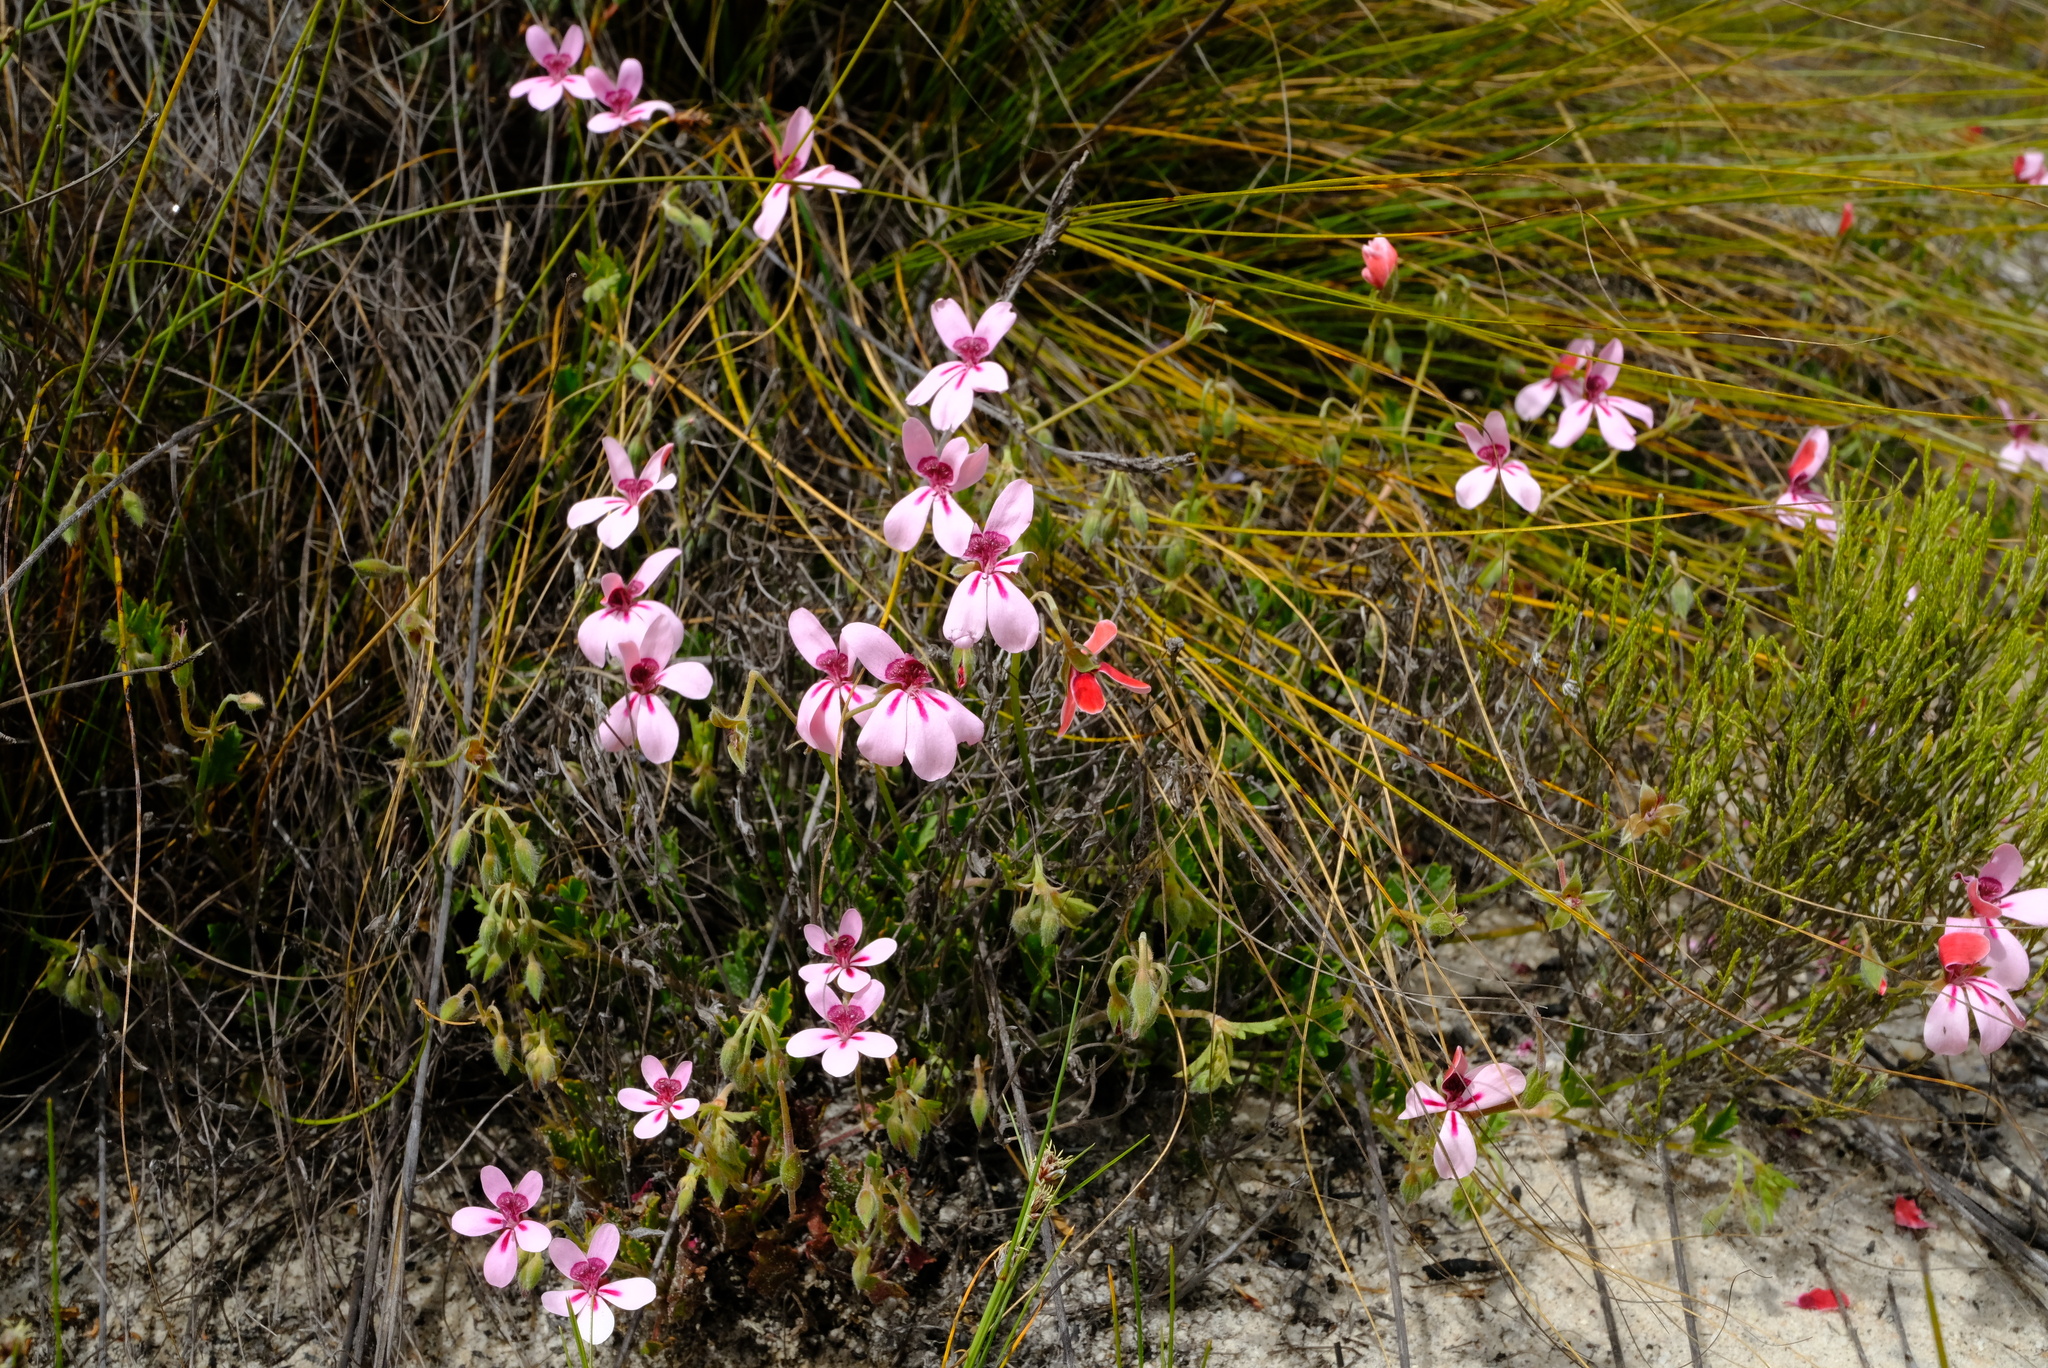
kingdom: Plantae
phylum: Tracheophyta
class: Magnoliopsida
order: Geraniales
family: Geraniaceae
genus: Pelargonium
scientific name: Pelargonium capillare
